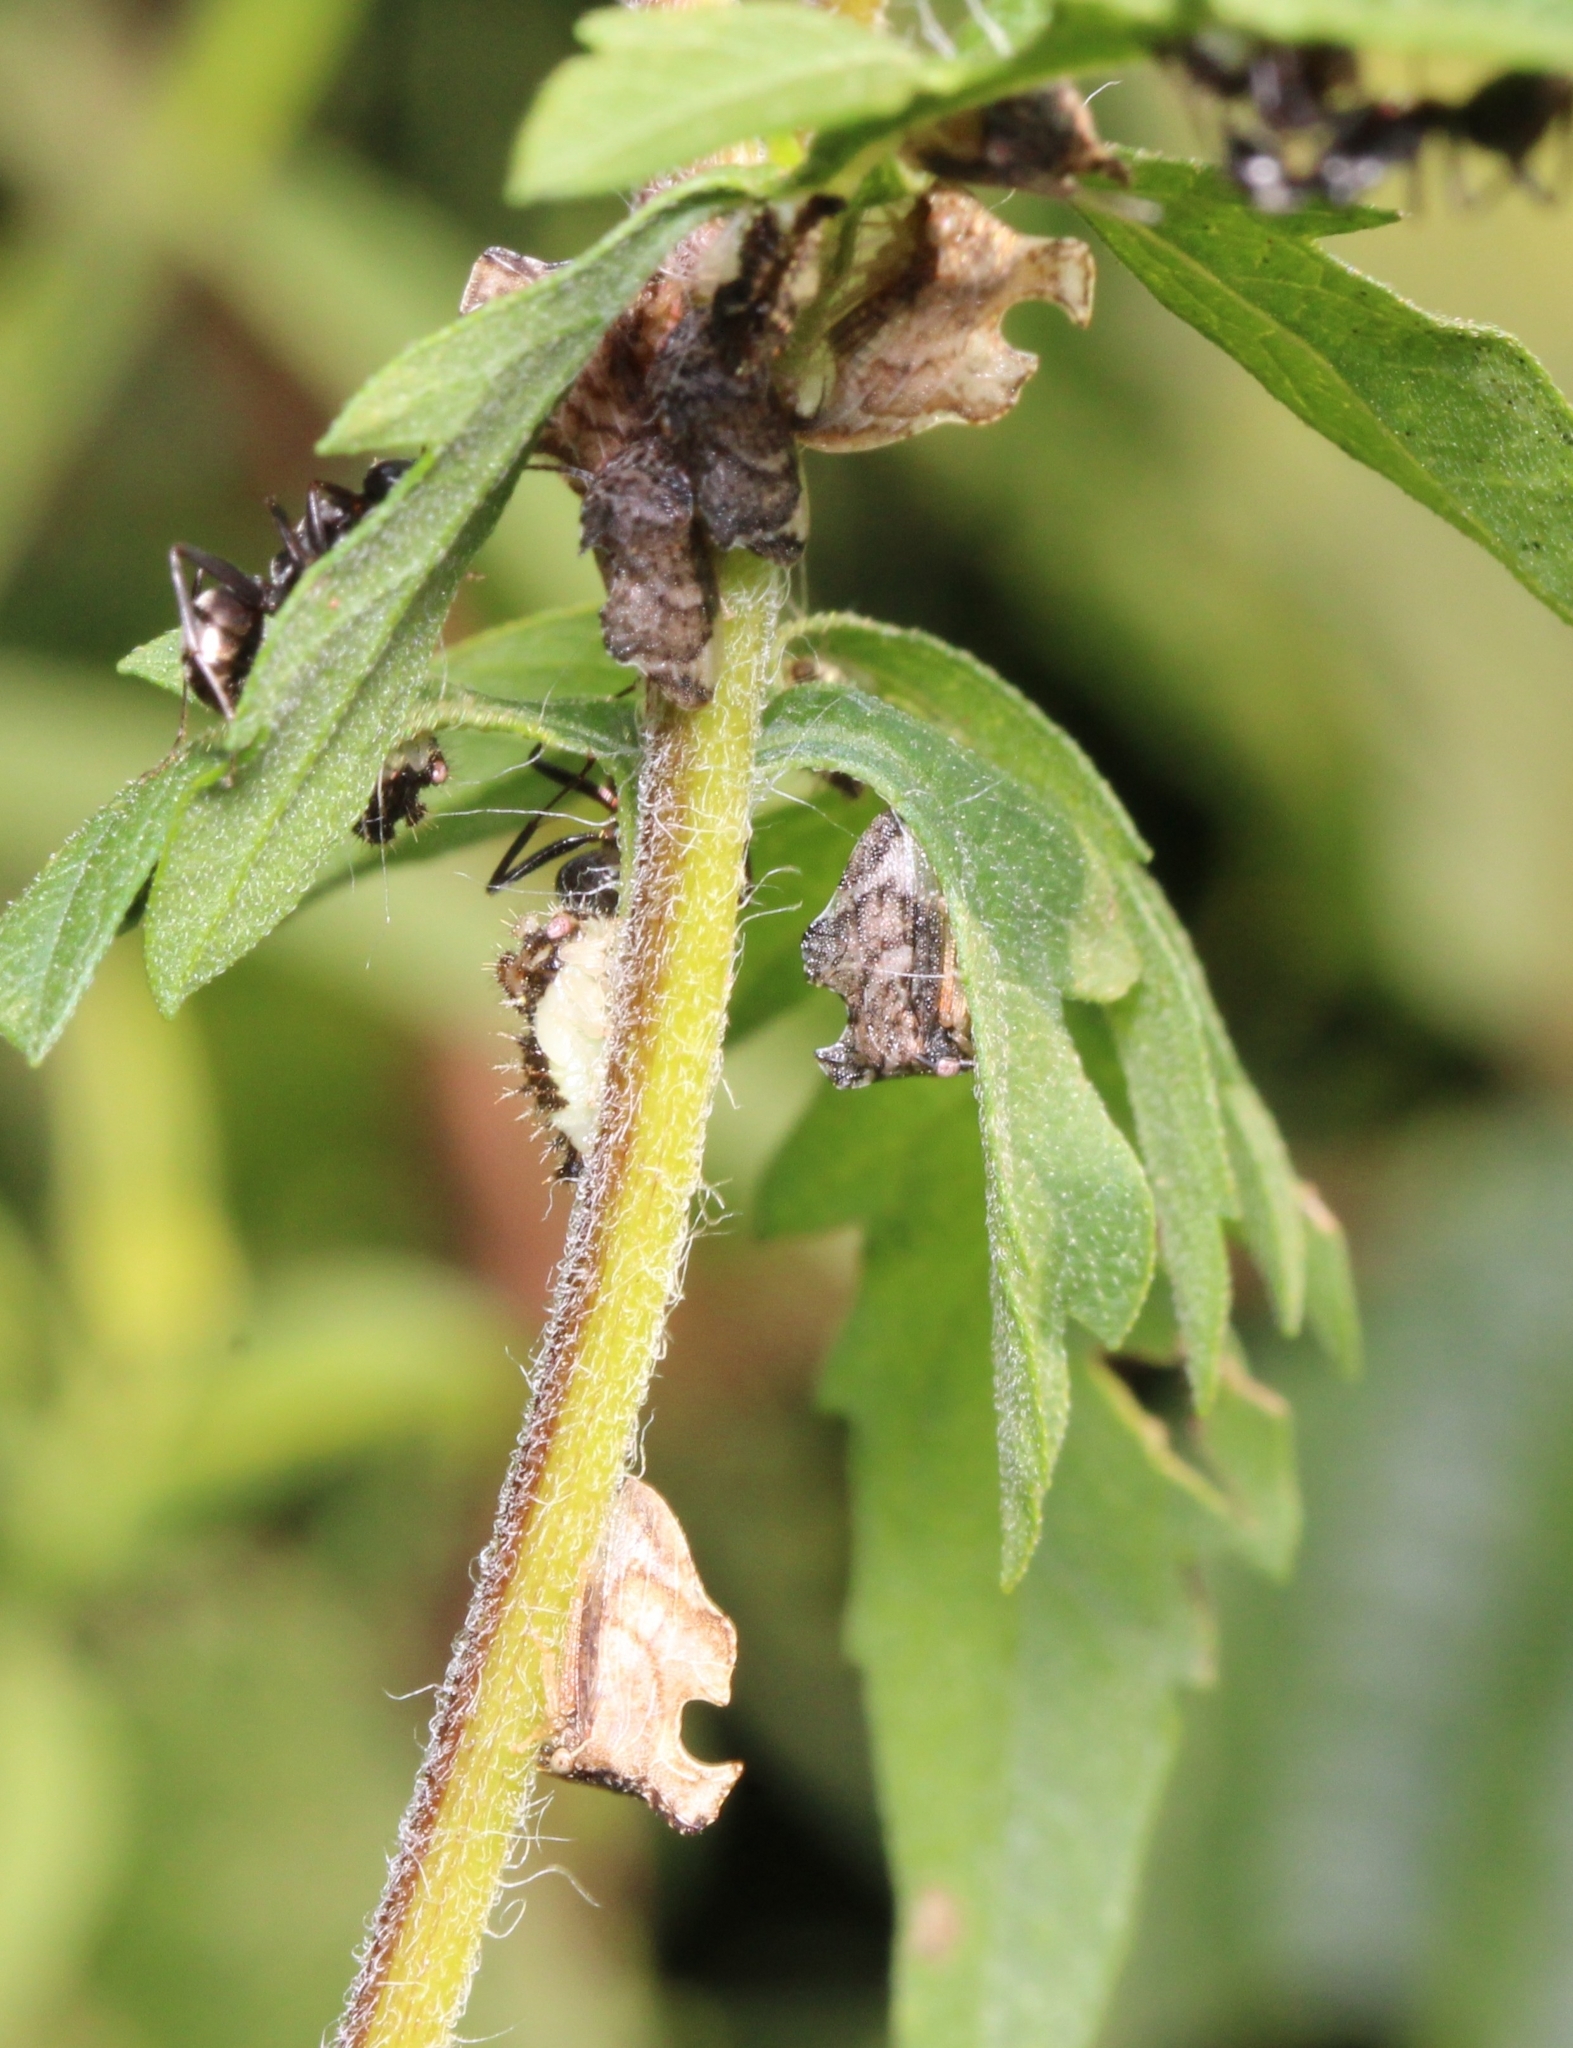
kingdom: Animalia
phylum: Arthropoda
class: Insecta
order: Hemiptera
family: Membracidae
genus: Entylia
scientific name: Entylia carinata
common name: Keeled treehopper
